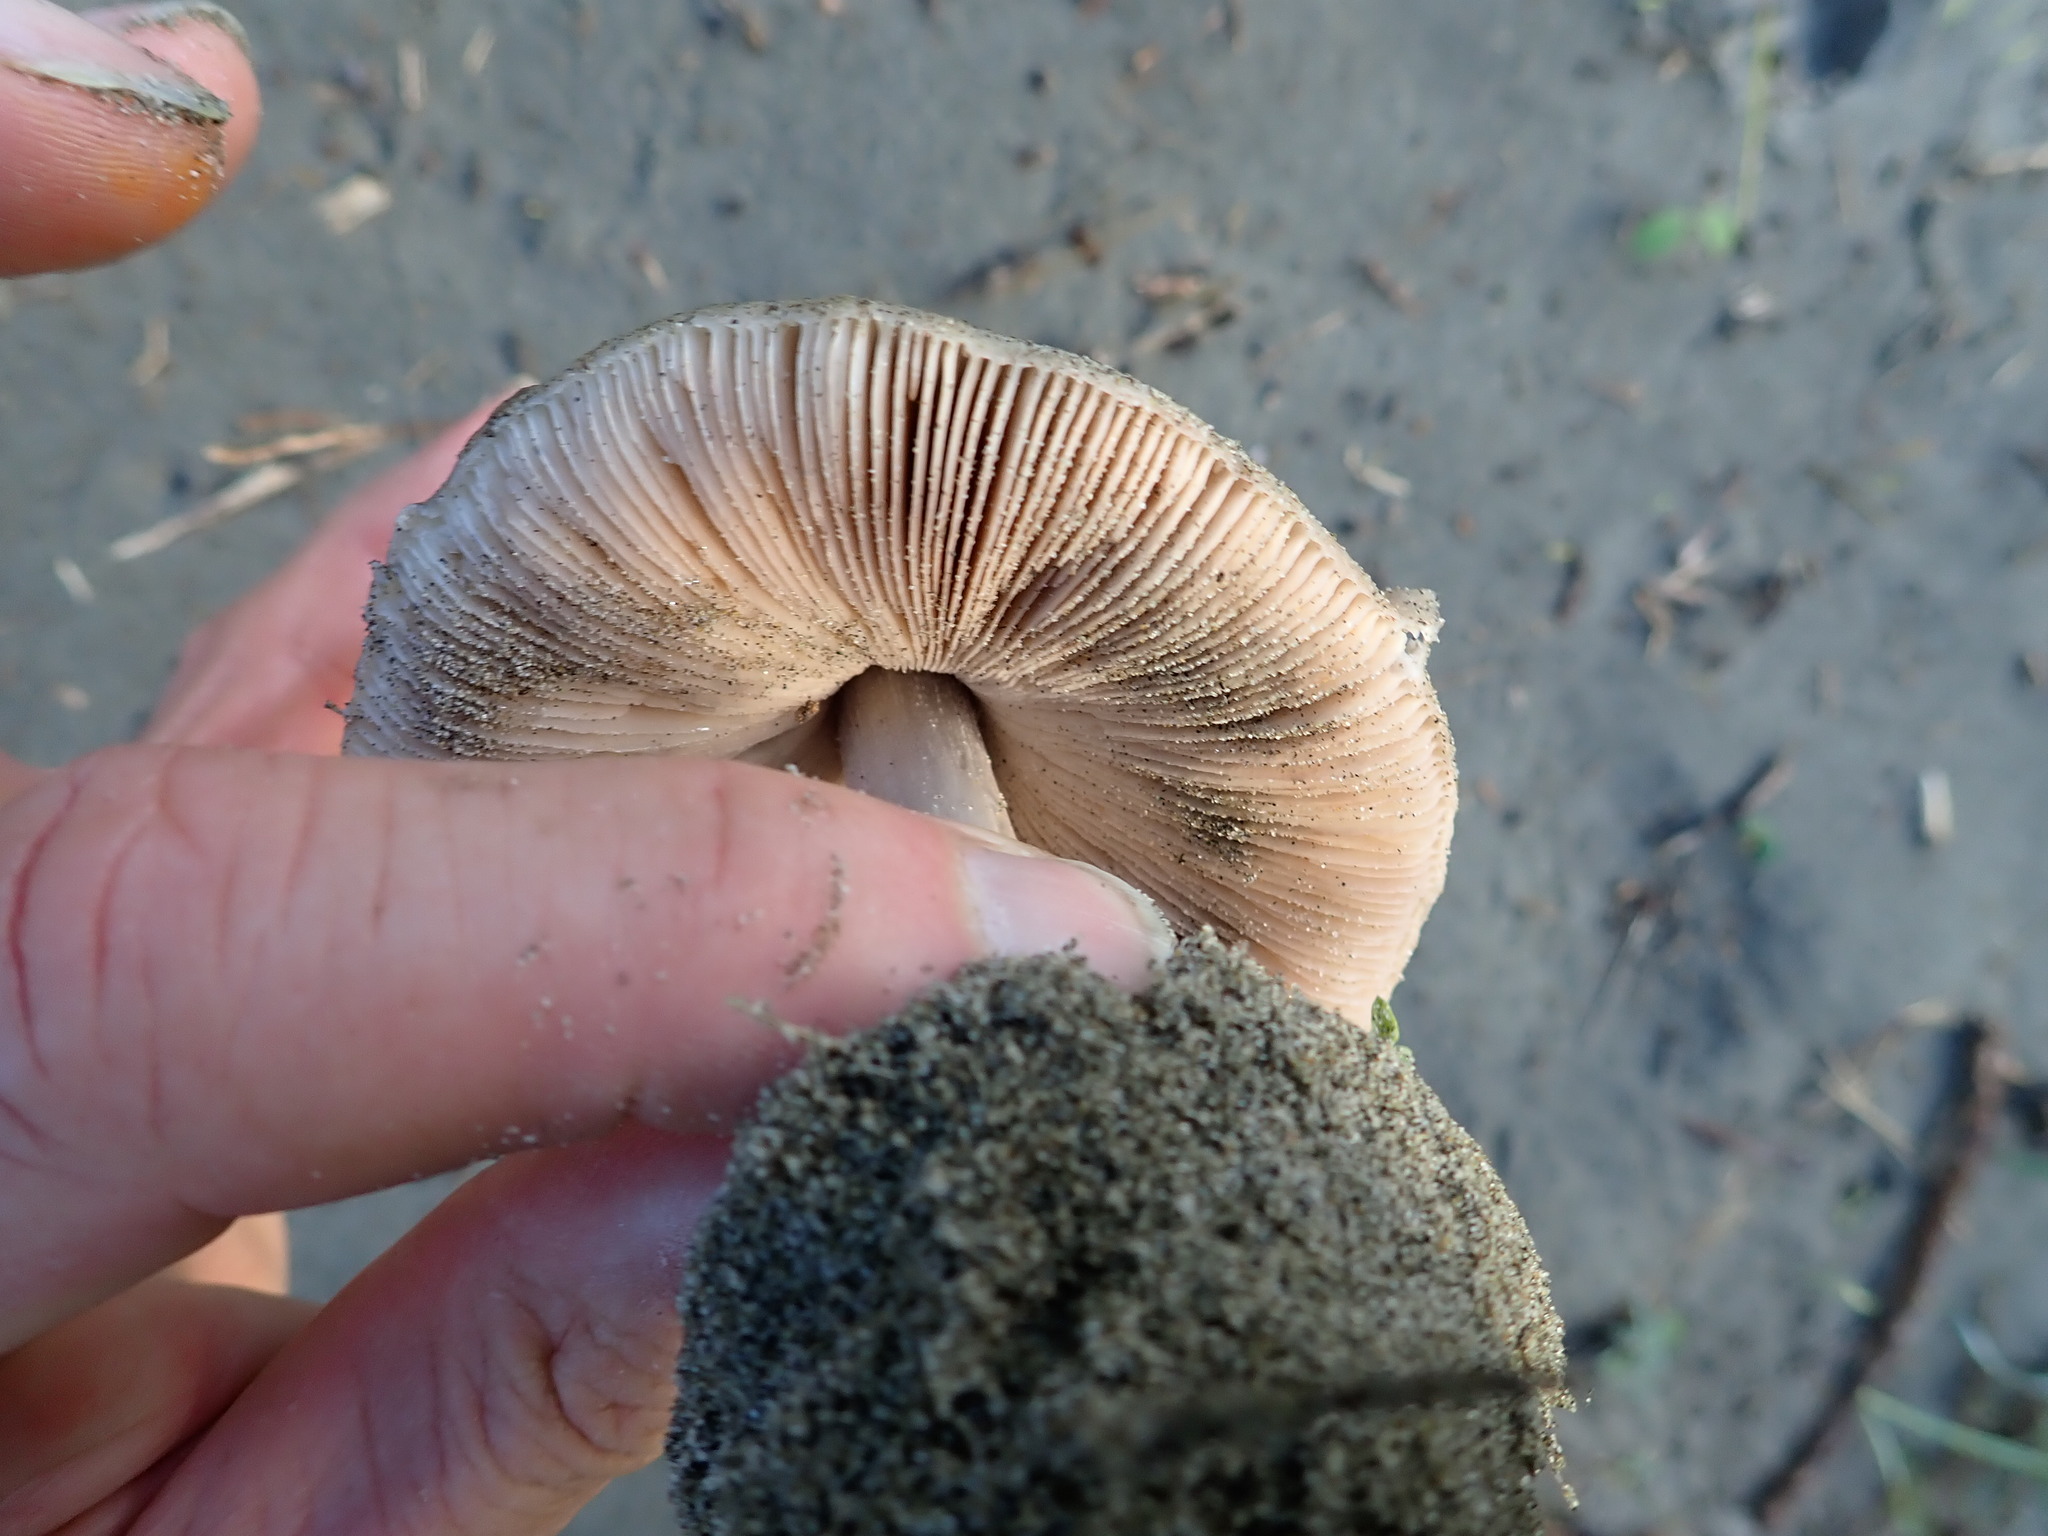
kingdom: Fungi
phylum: Basidiomycota
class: Agaricomycetes
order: Agaricales
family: Pluteaceae
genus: Volvopluteus
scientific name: Volvopluteus gloiocephalus
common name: Stubble rosegill
